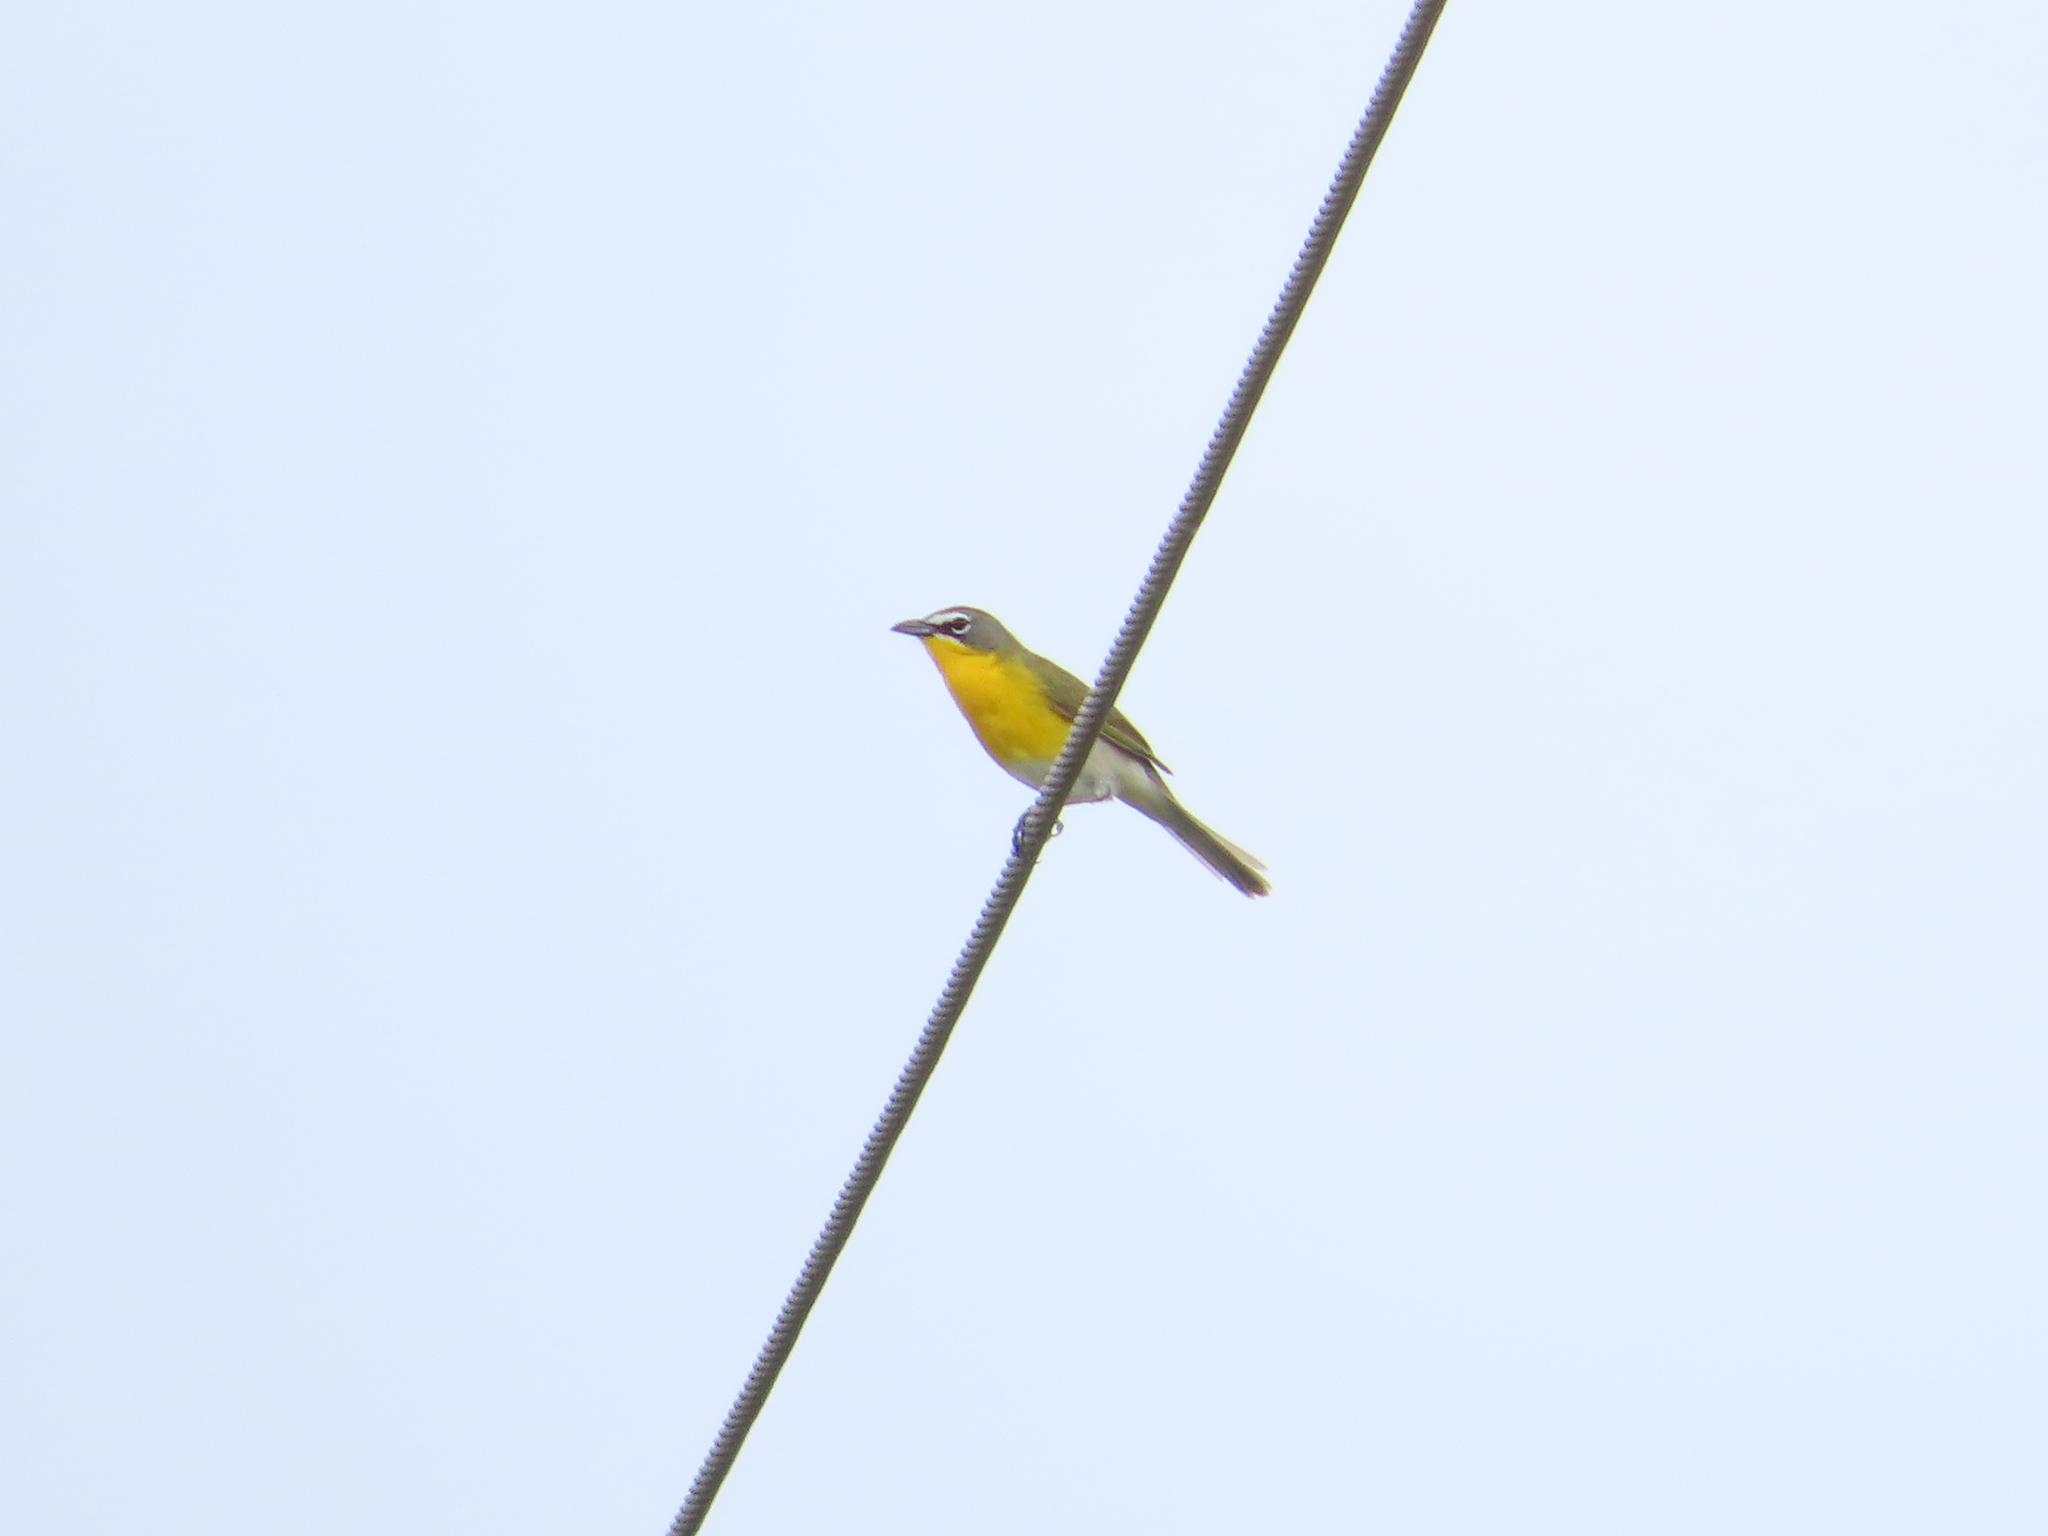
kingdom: Animalia
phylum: Chordata
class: Aves
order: Passeriformes
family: Parulidae
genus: Icteria
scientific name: Icteria virens
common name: Yellow-breasted chat
